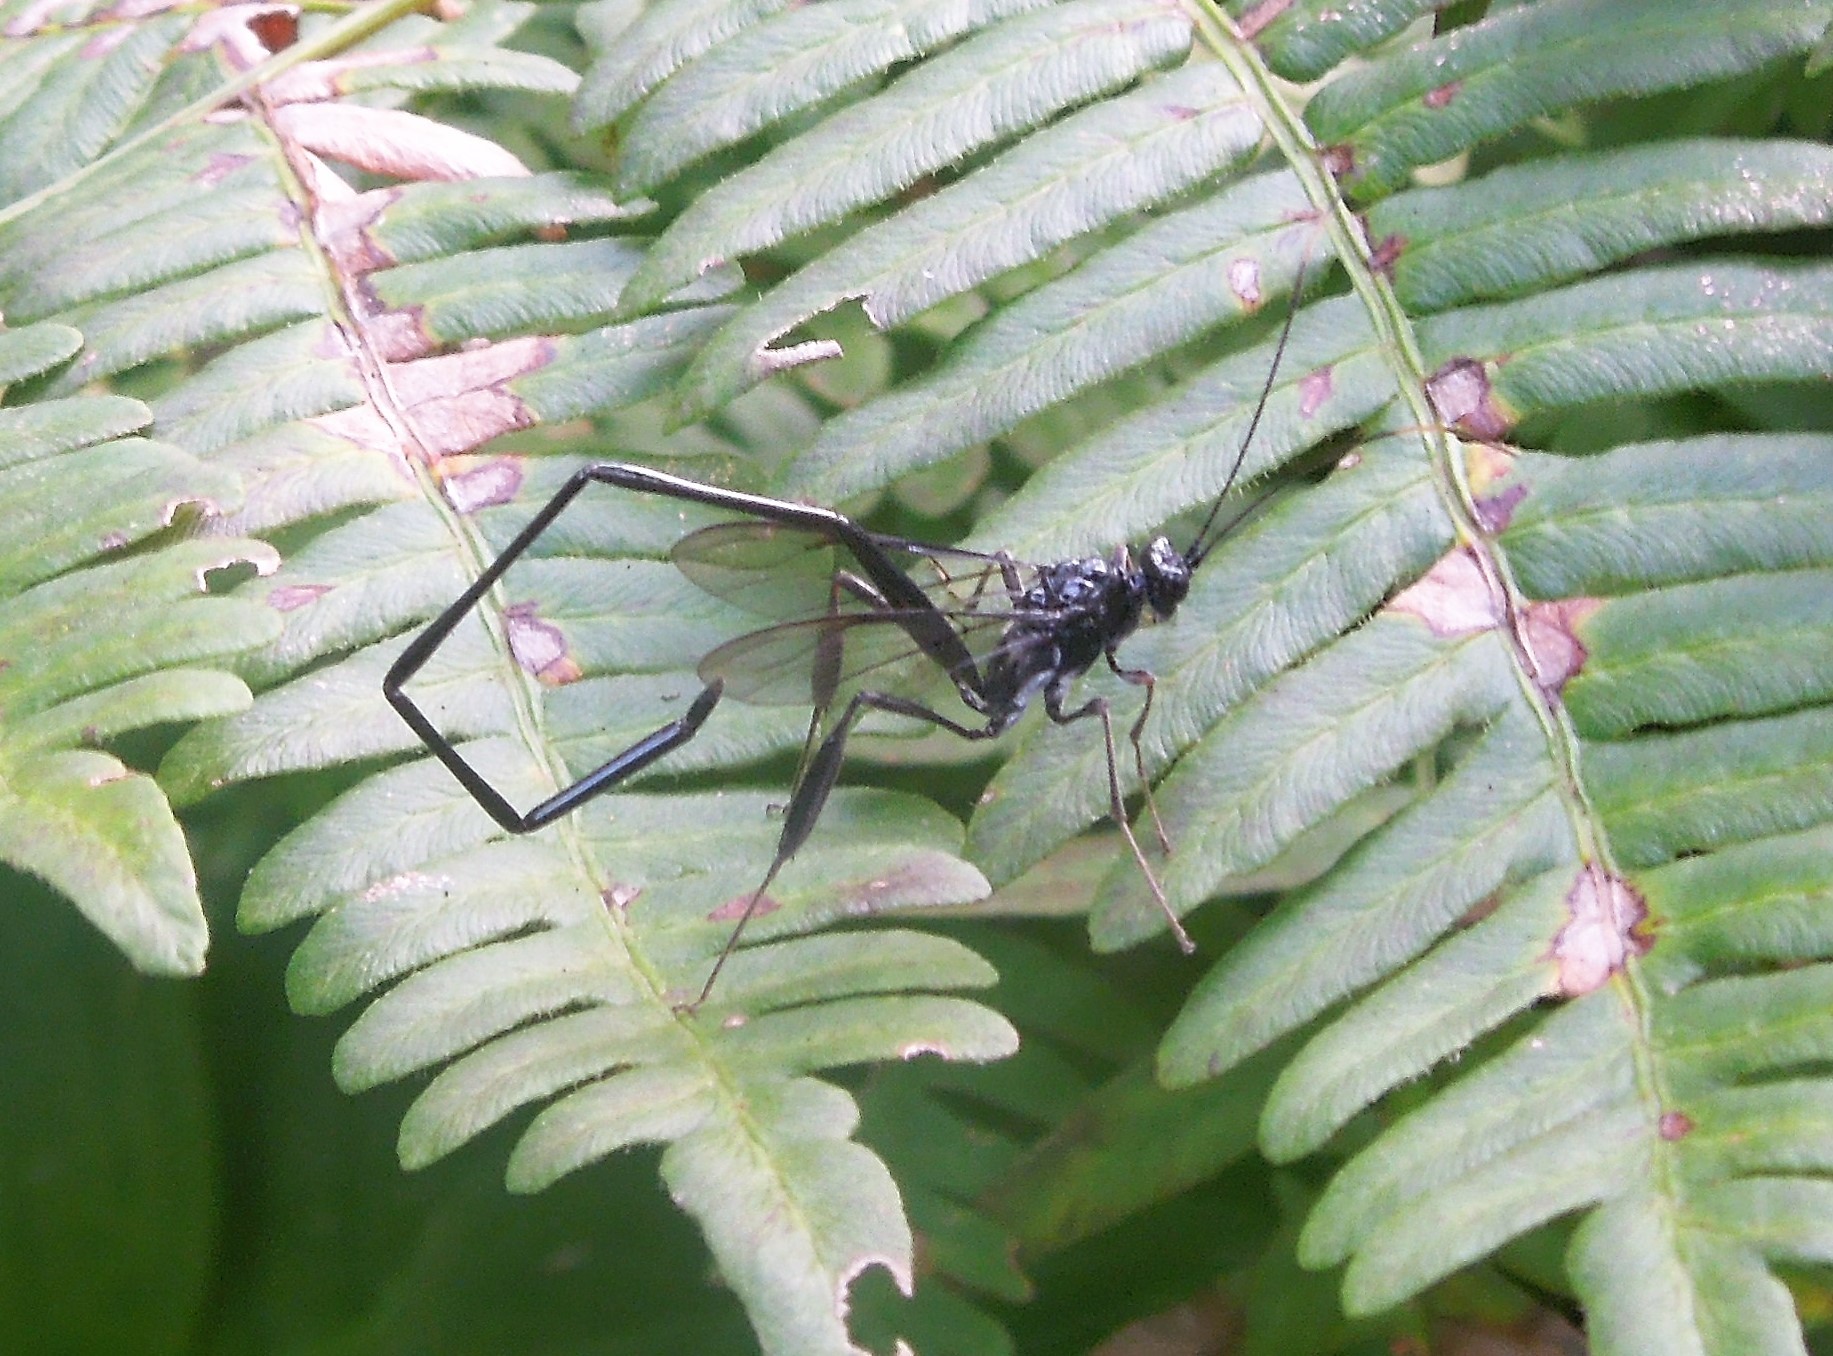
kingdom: Animalia
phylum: Arthropoda
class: Insecta
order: Hymenoptera
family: Pelecinidae
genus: Pelecinus
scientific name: Pelecinus polyturator
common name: American pelecinid wasp
